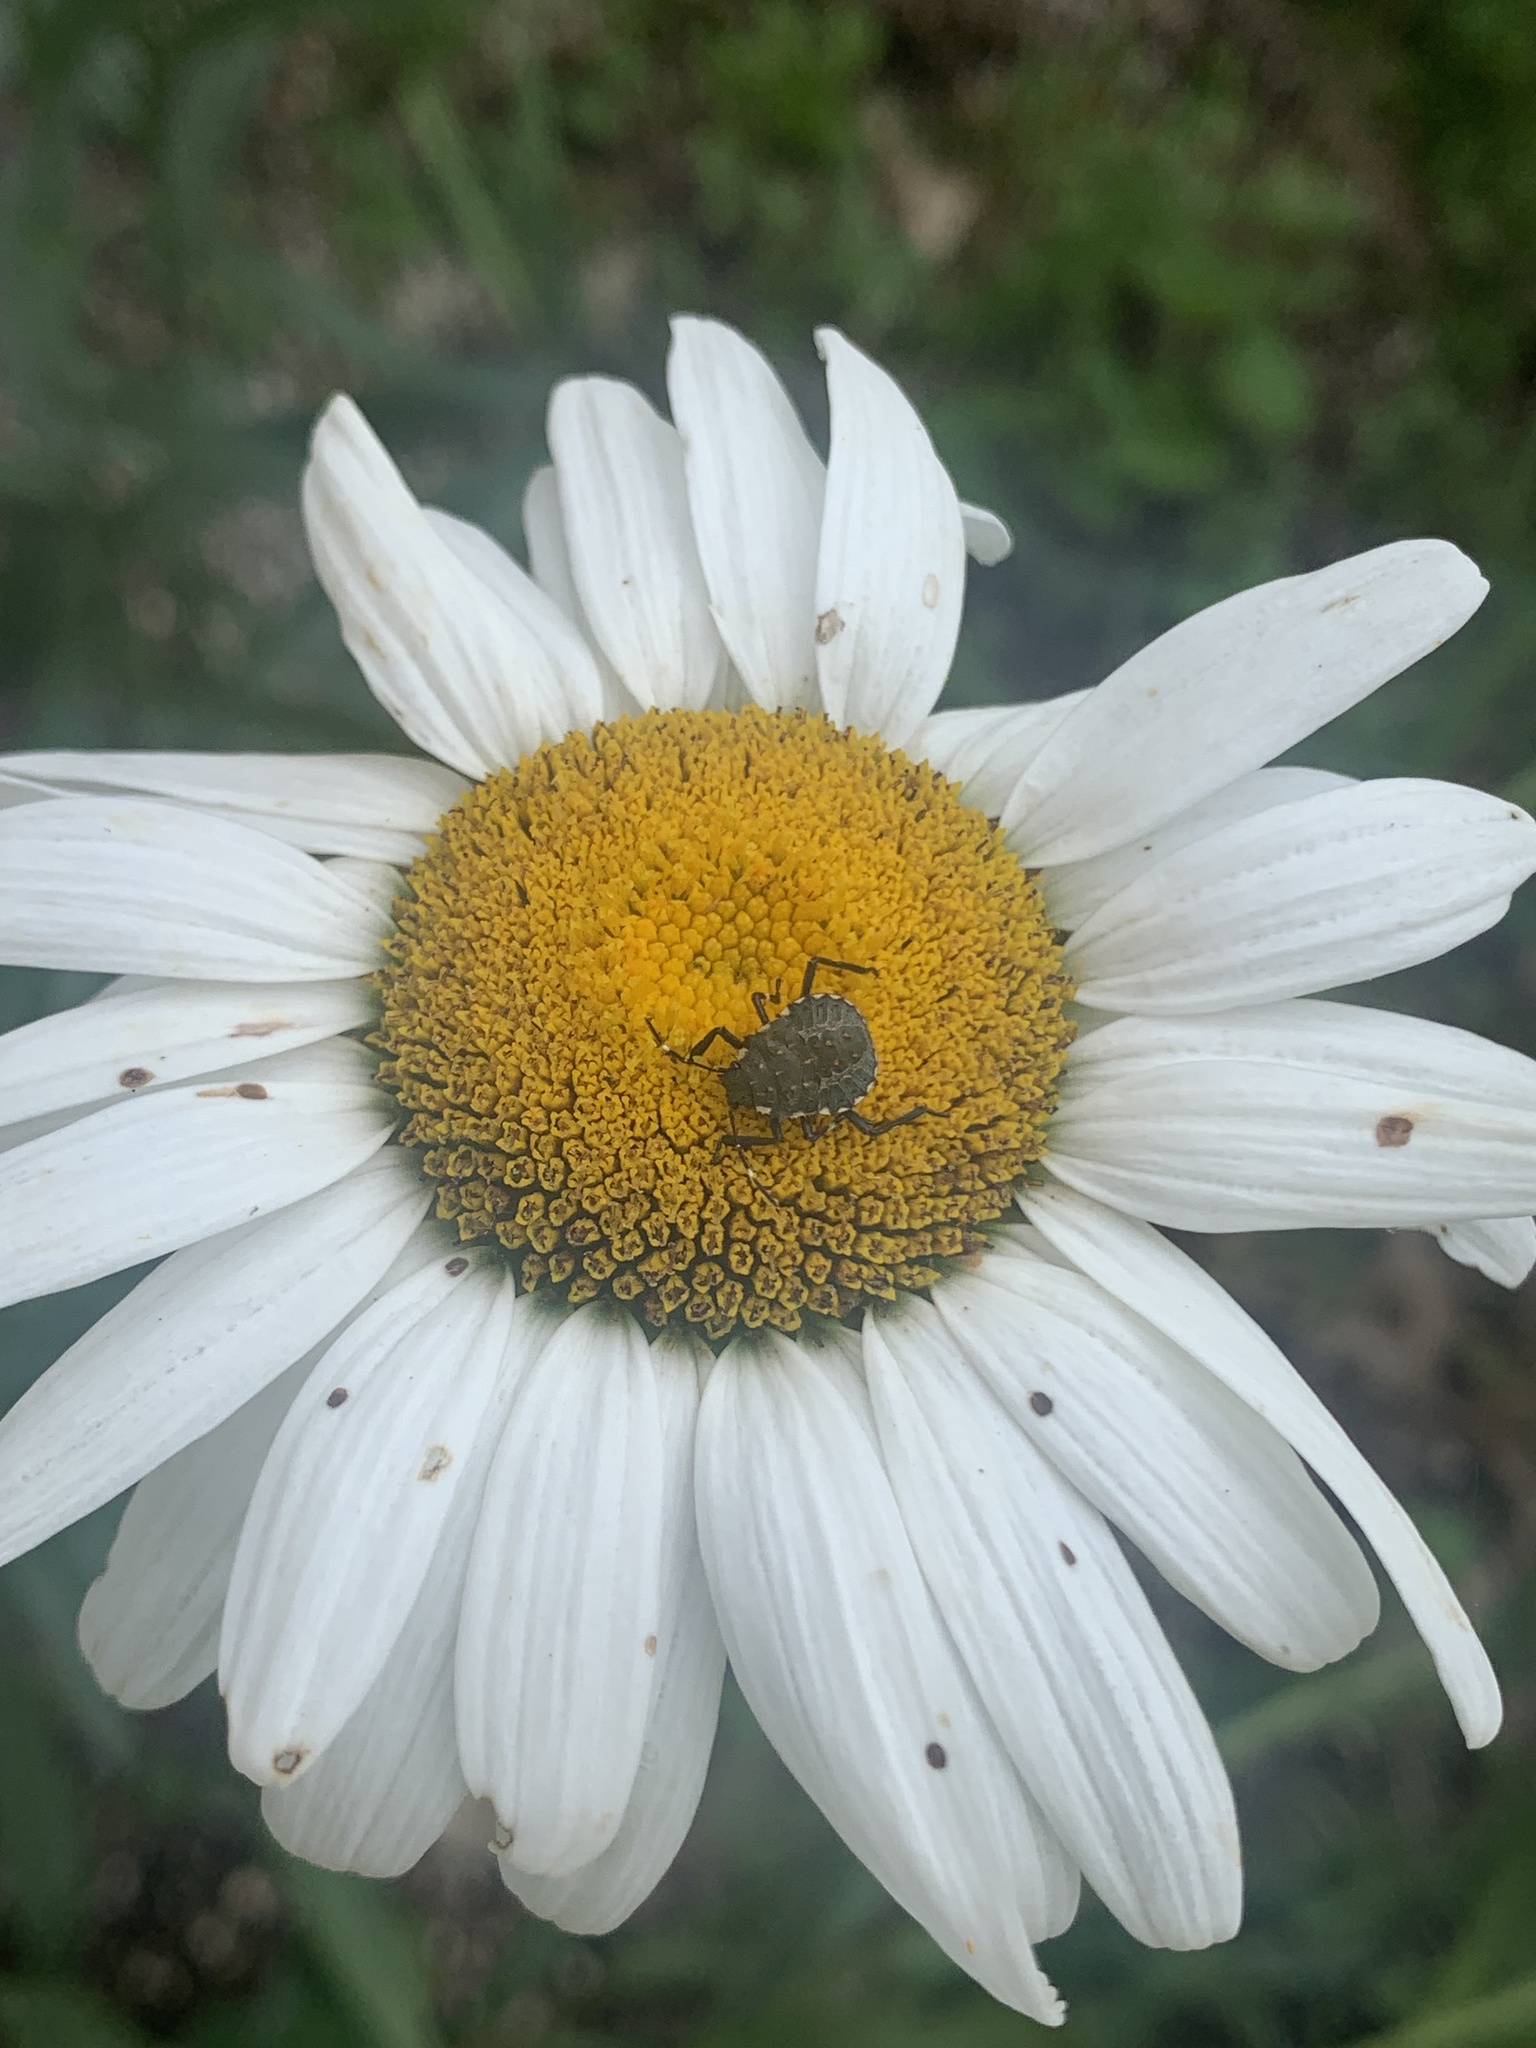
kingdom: Animalia
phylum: Arthropoda
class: Insecta
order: Hemiptera
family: Pentatomidae
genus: Halyomorpha
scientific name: Halyomorpha halys
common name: Brown marmorated stink bug
